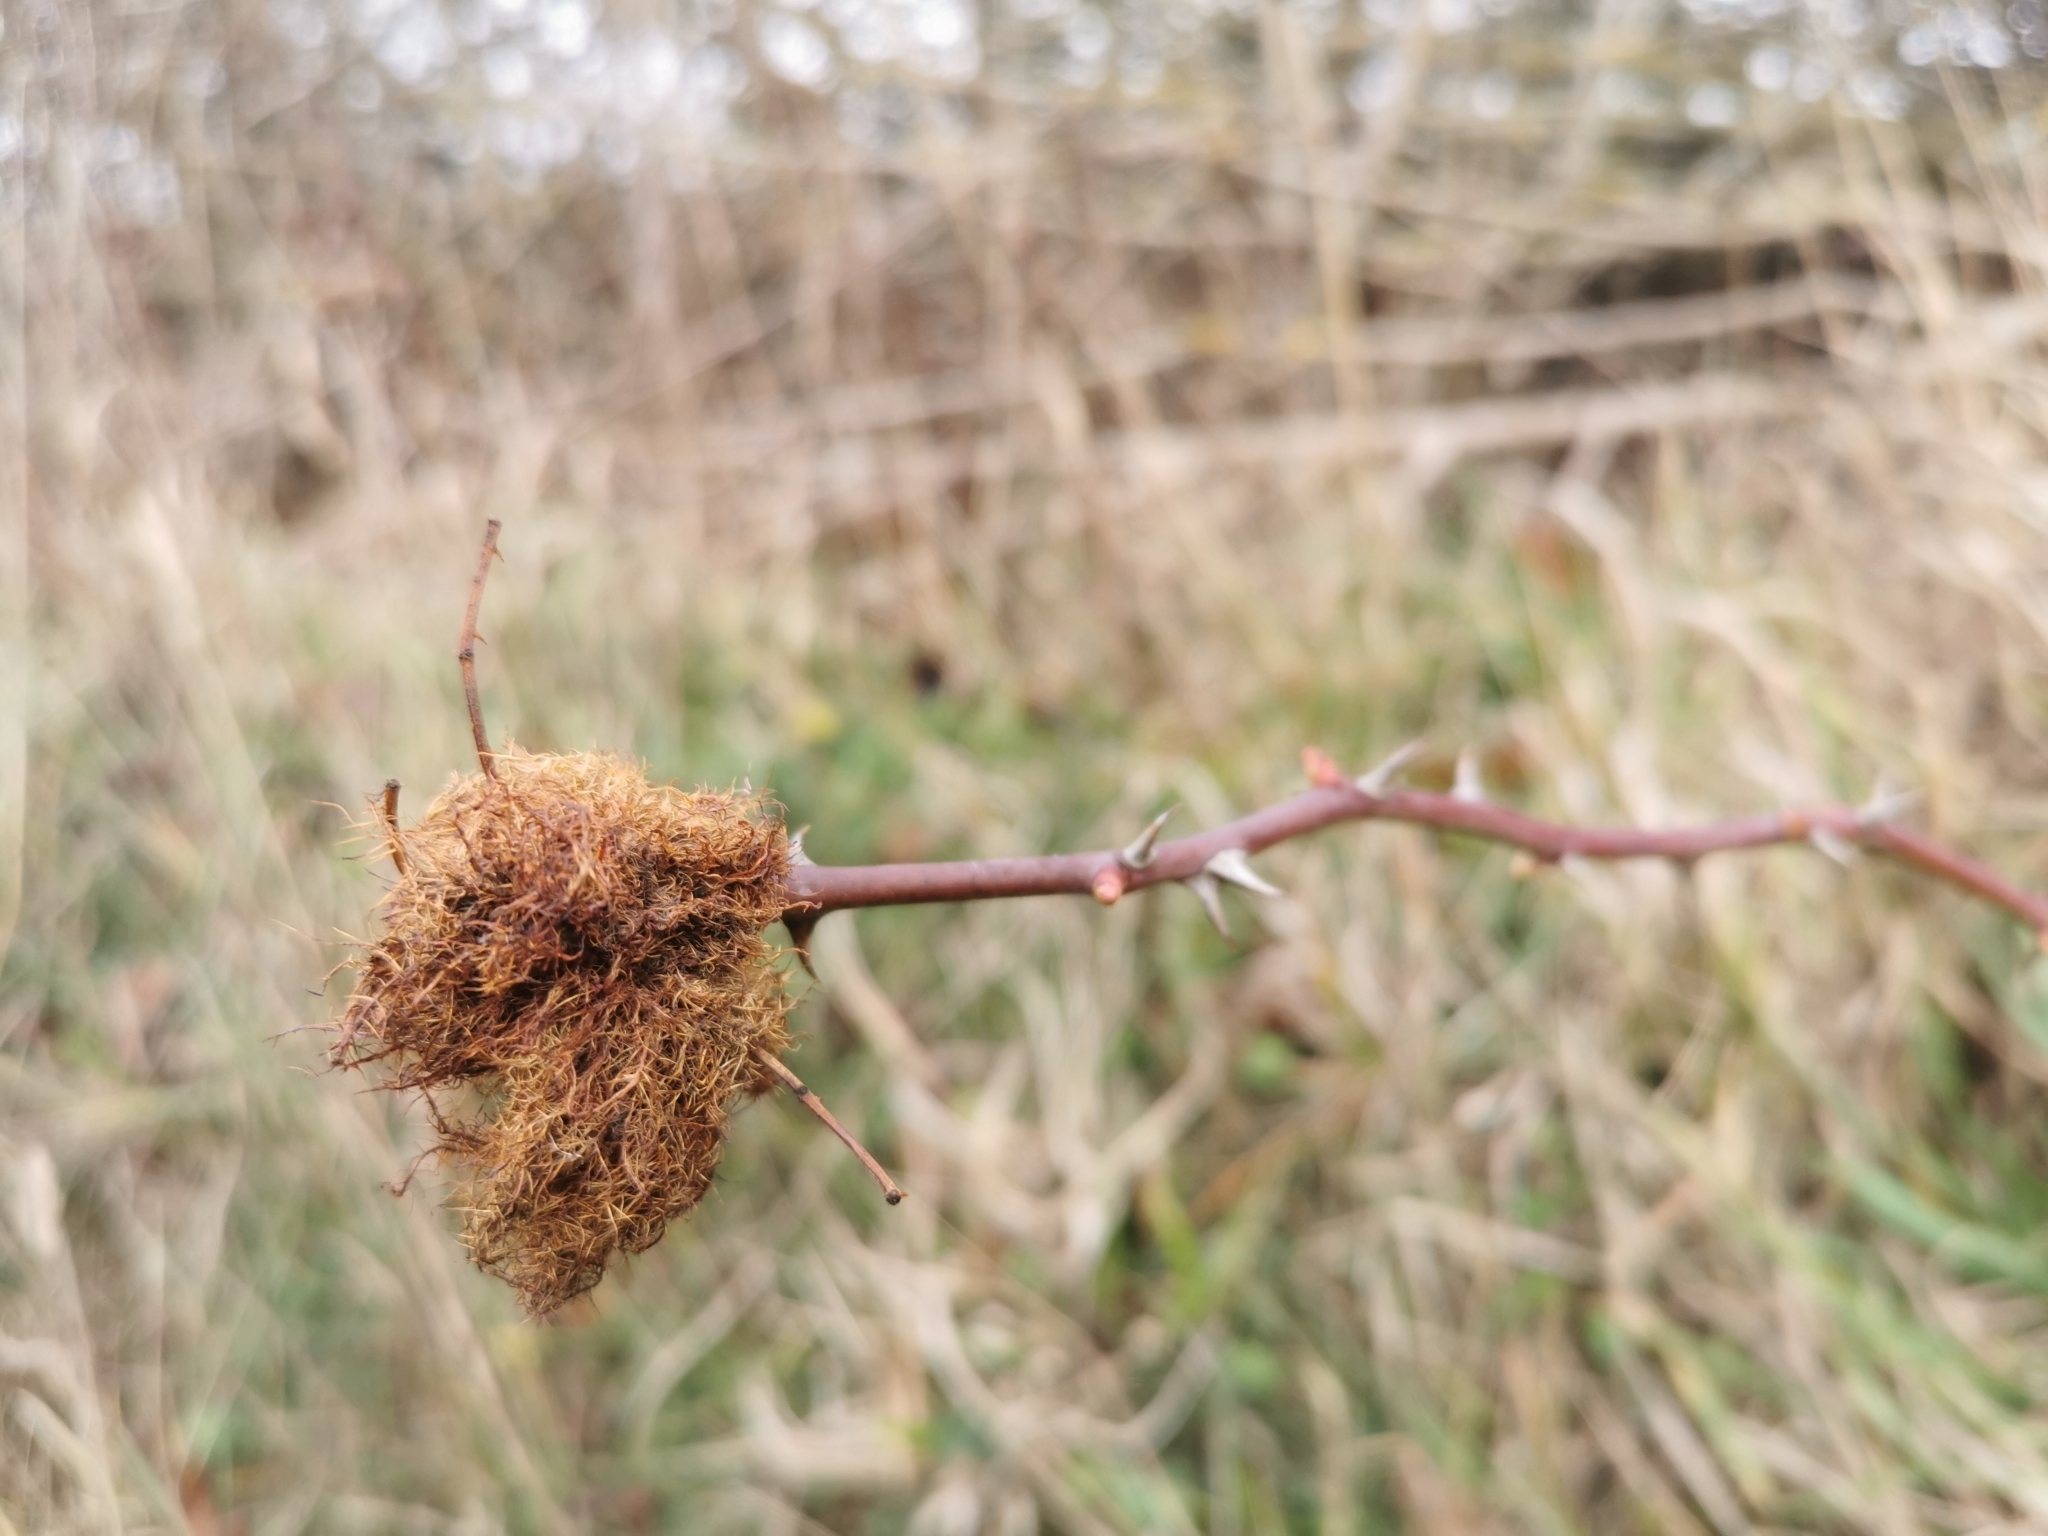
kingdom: Animalia
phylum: Arthropoda
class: Insecta
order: Hymenoptera
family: Cynipidae
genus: Diplolepis
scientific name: Diplolepis rosae
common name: Bedeguar gall
